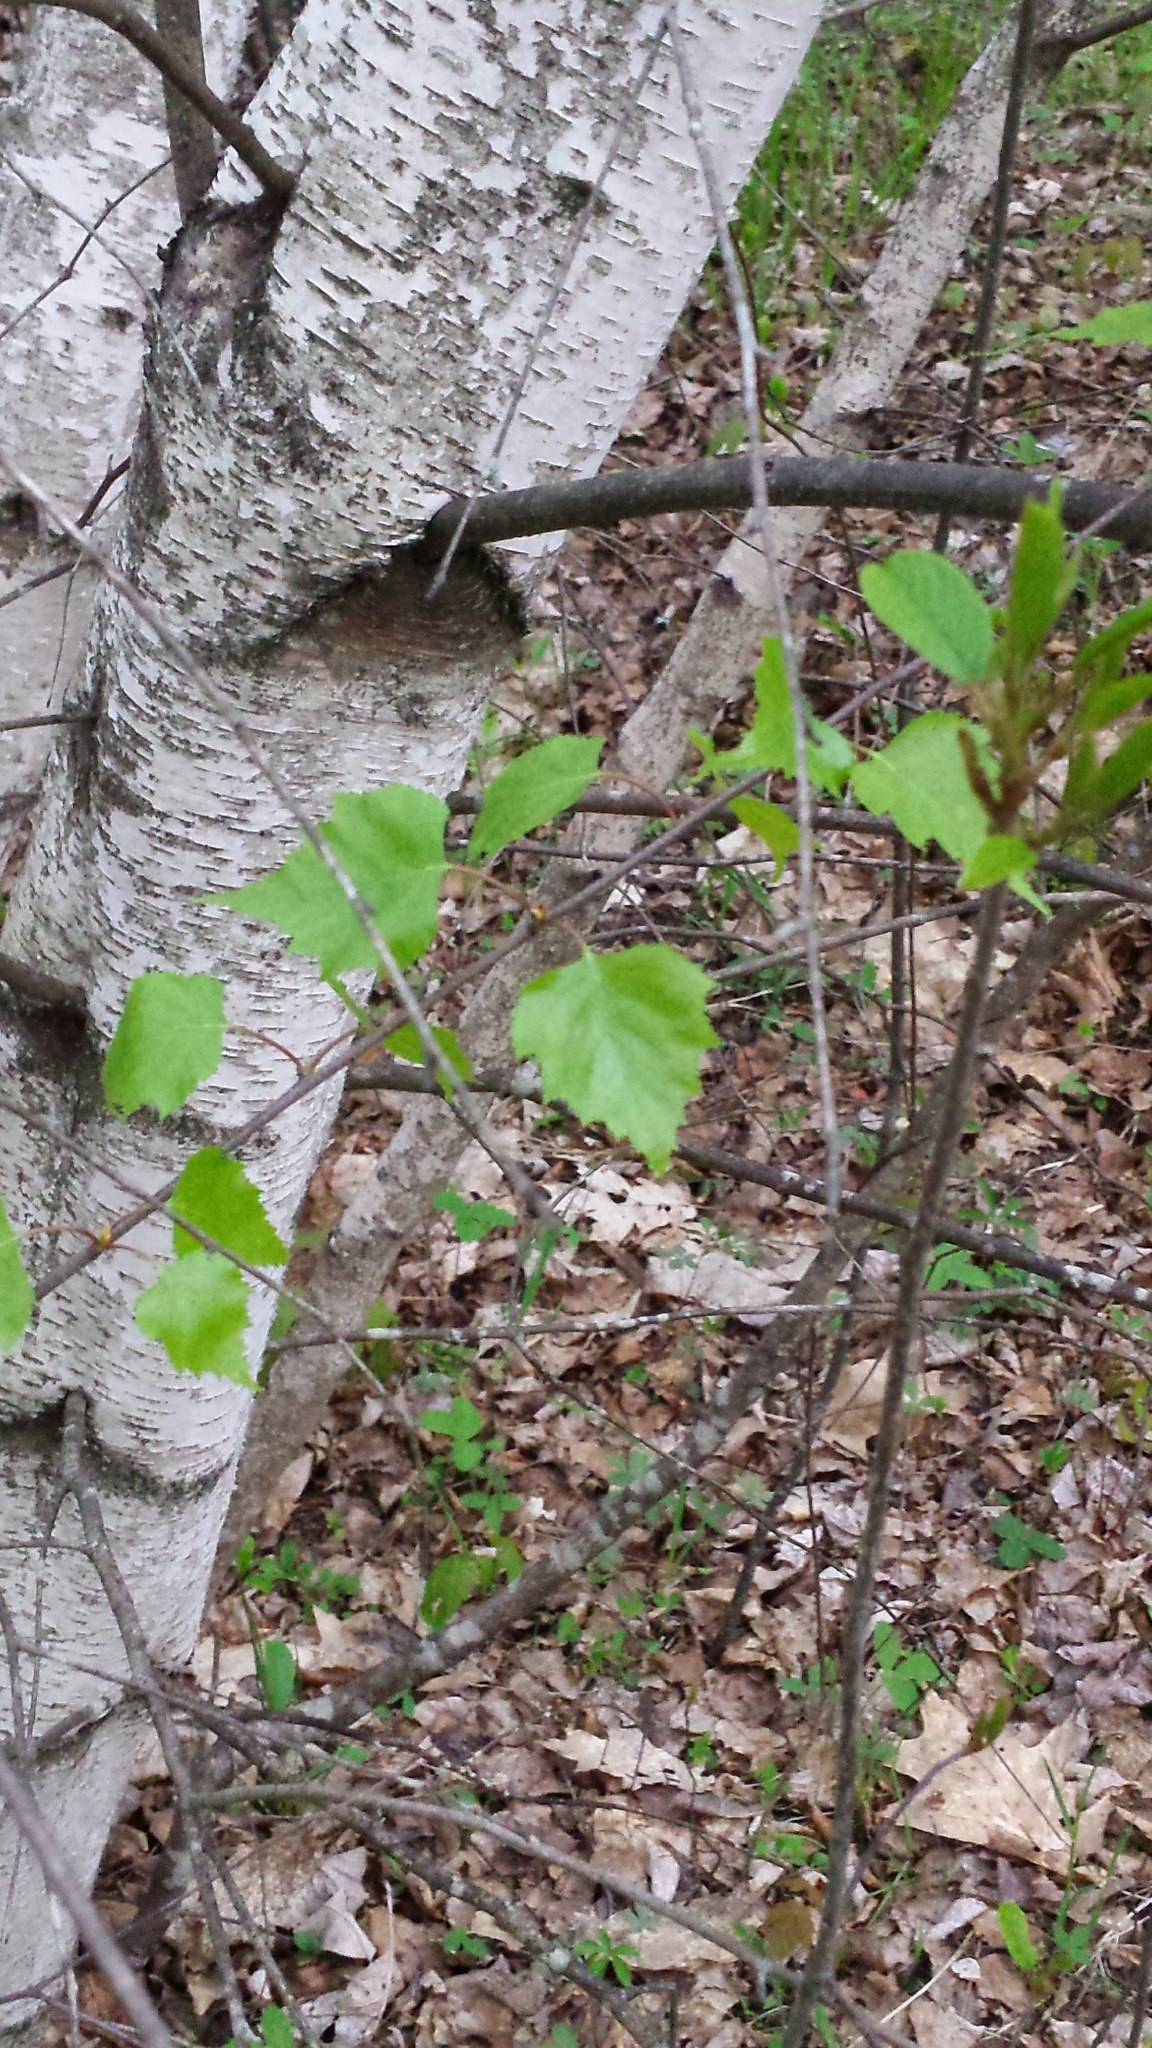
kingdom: Plantae
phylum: Tracheophyta
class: Magnoliopsida
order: Fagales
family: Betulaceae
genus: Betula
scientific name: Betula populifolia
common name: Fire birch
